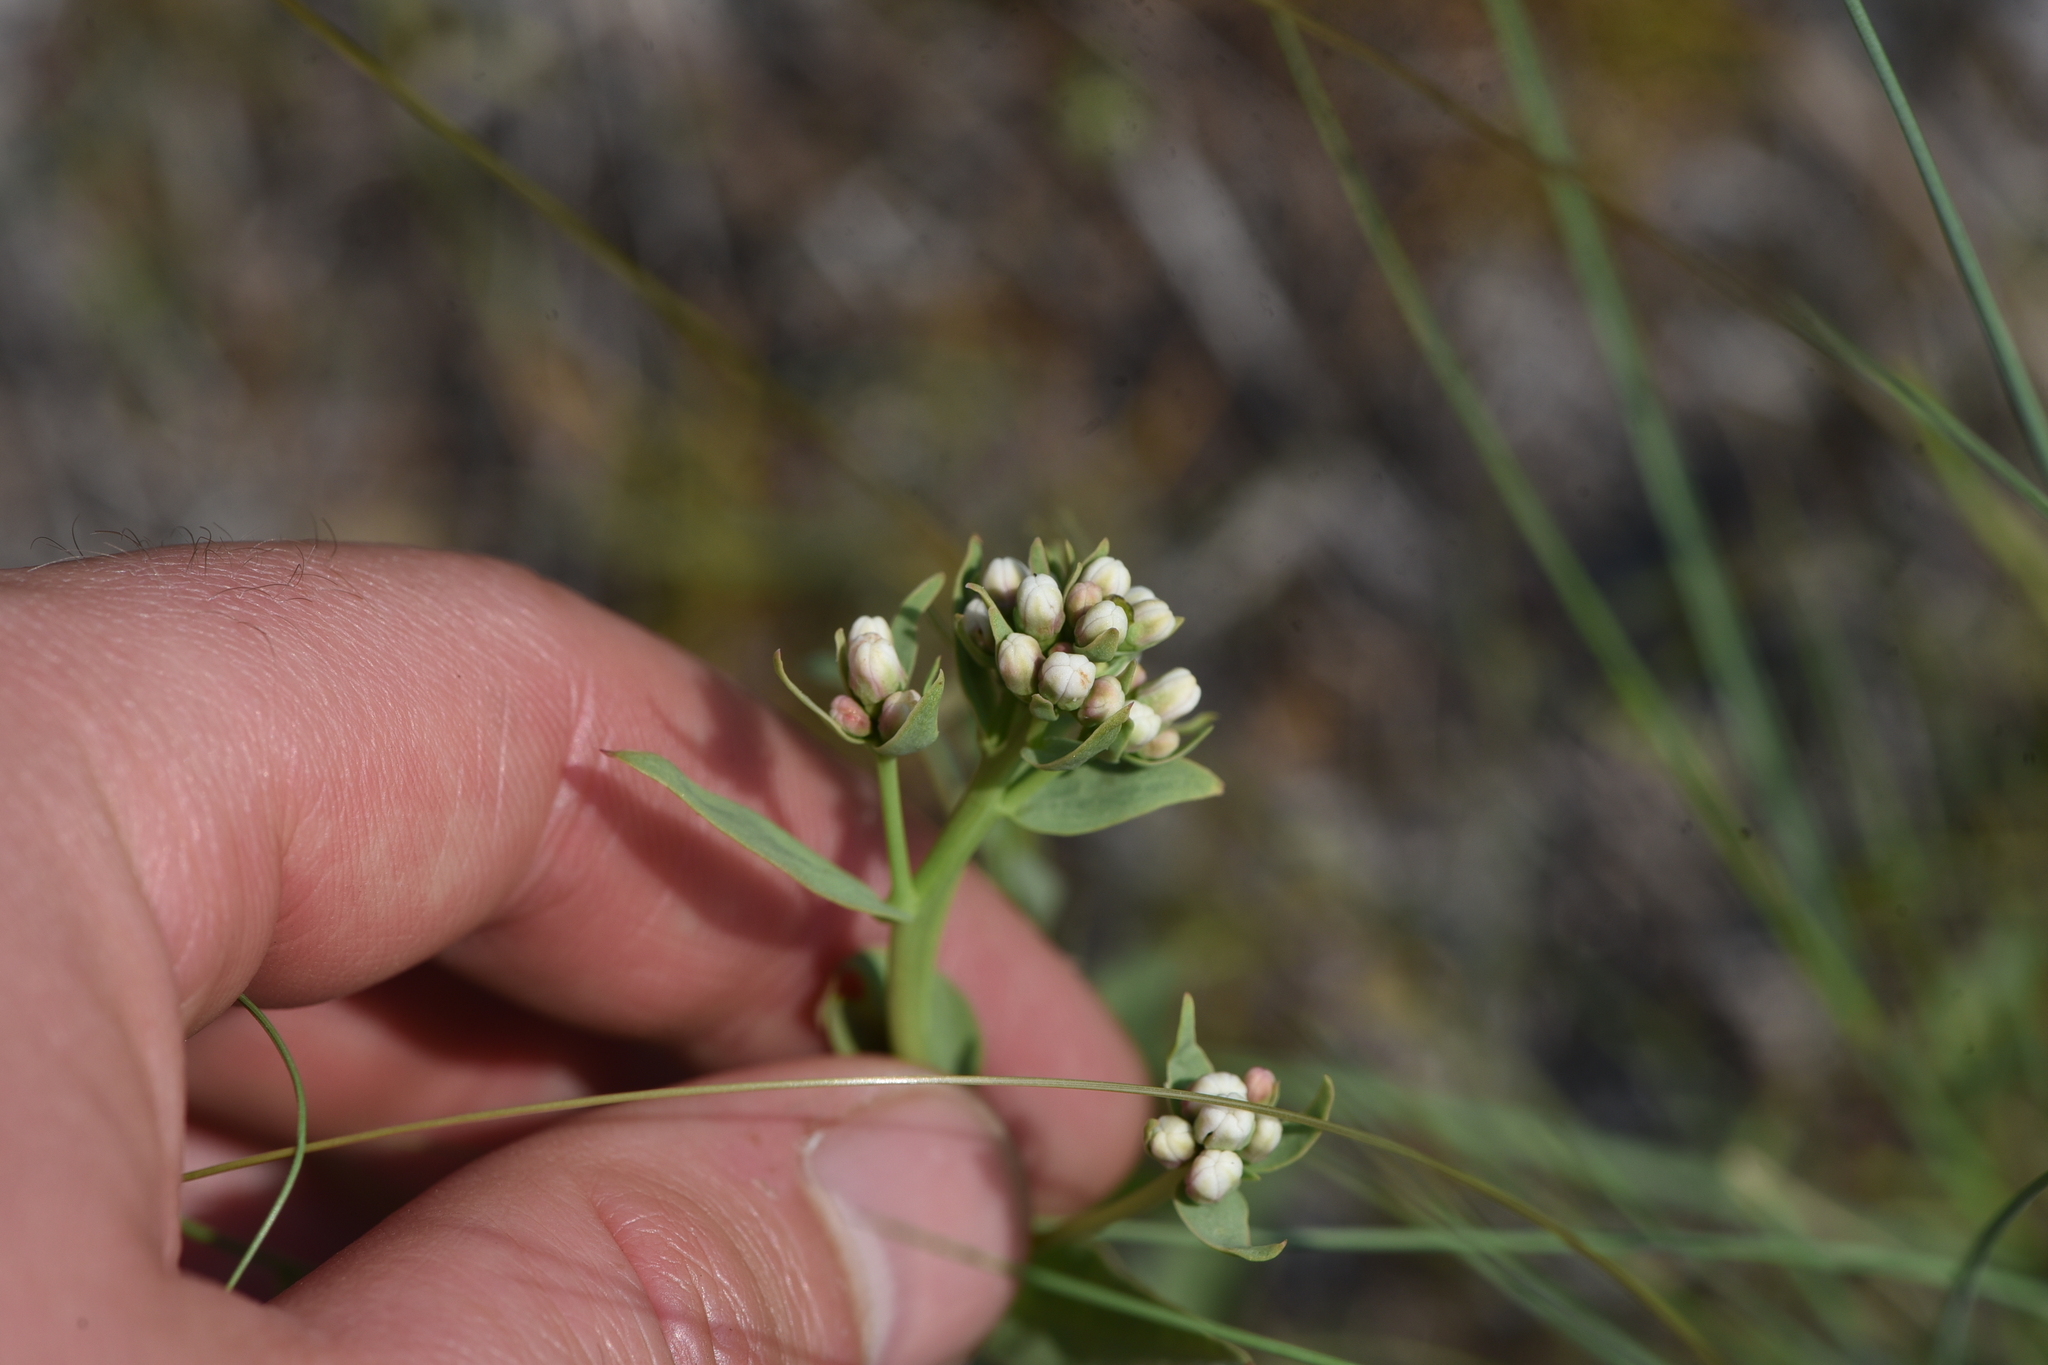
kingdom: Plantae
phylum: Tracheophyta
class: Magnoliopsida
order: Santalales
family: Comandraceae
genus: Comandra
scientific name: Comandra umbellata
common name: Bastard toadflax
